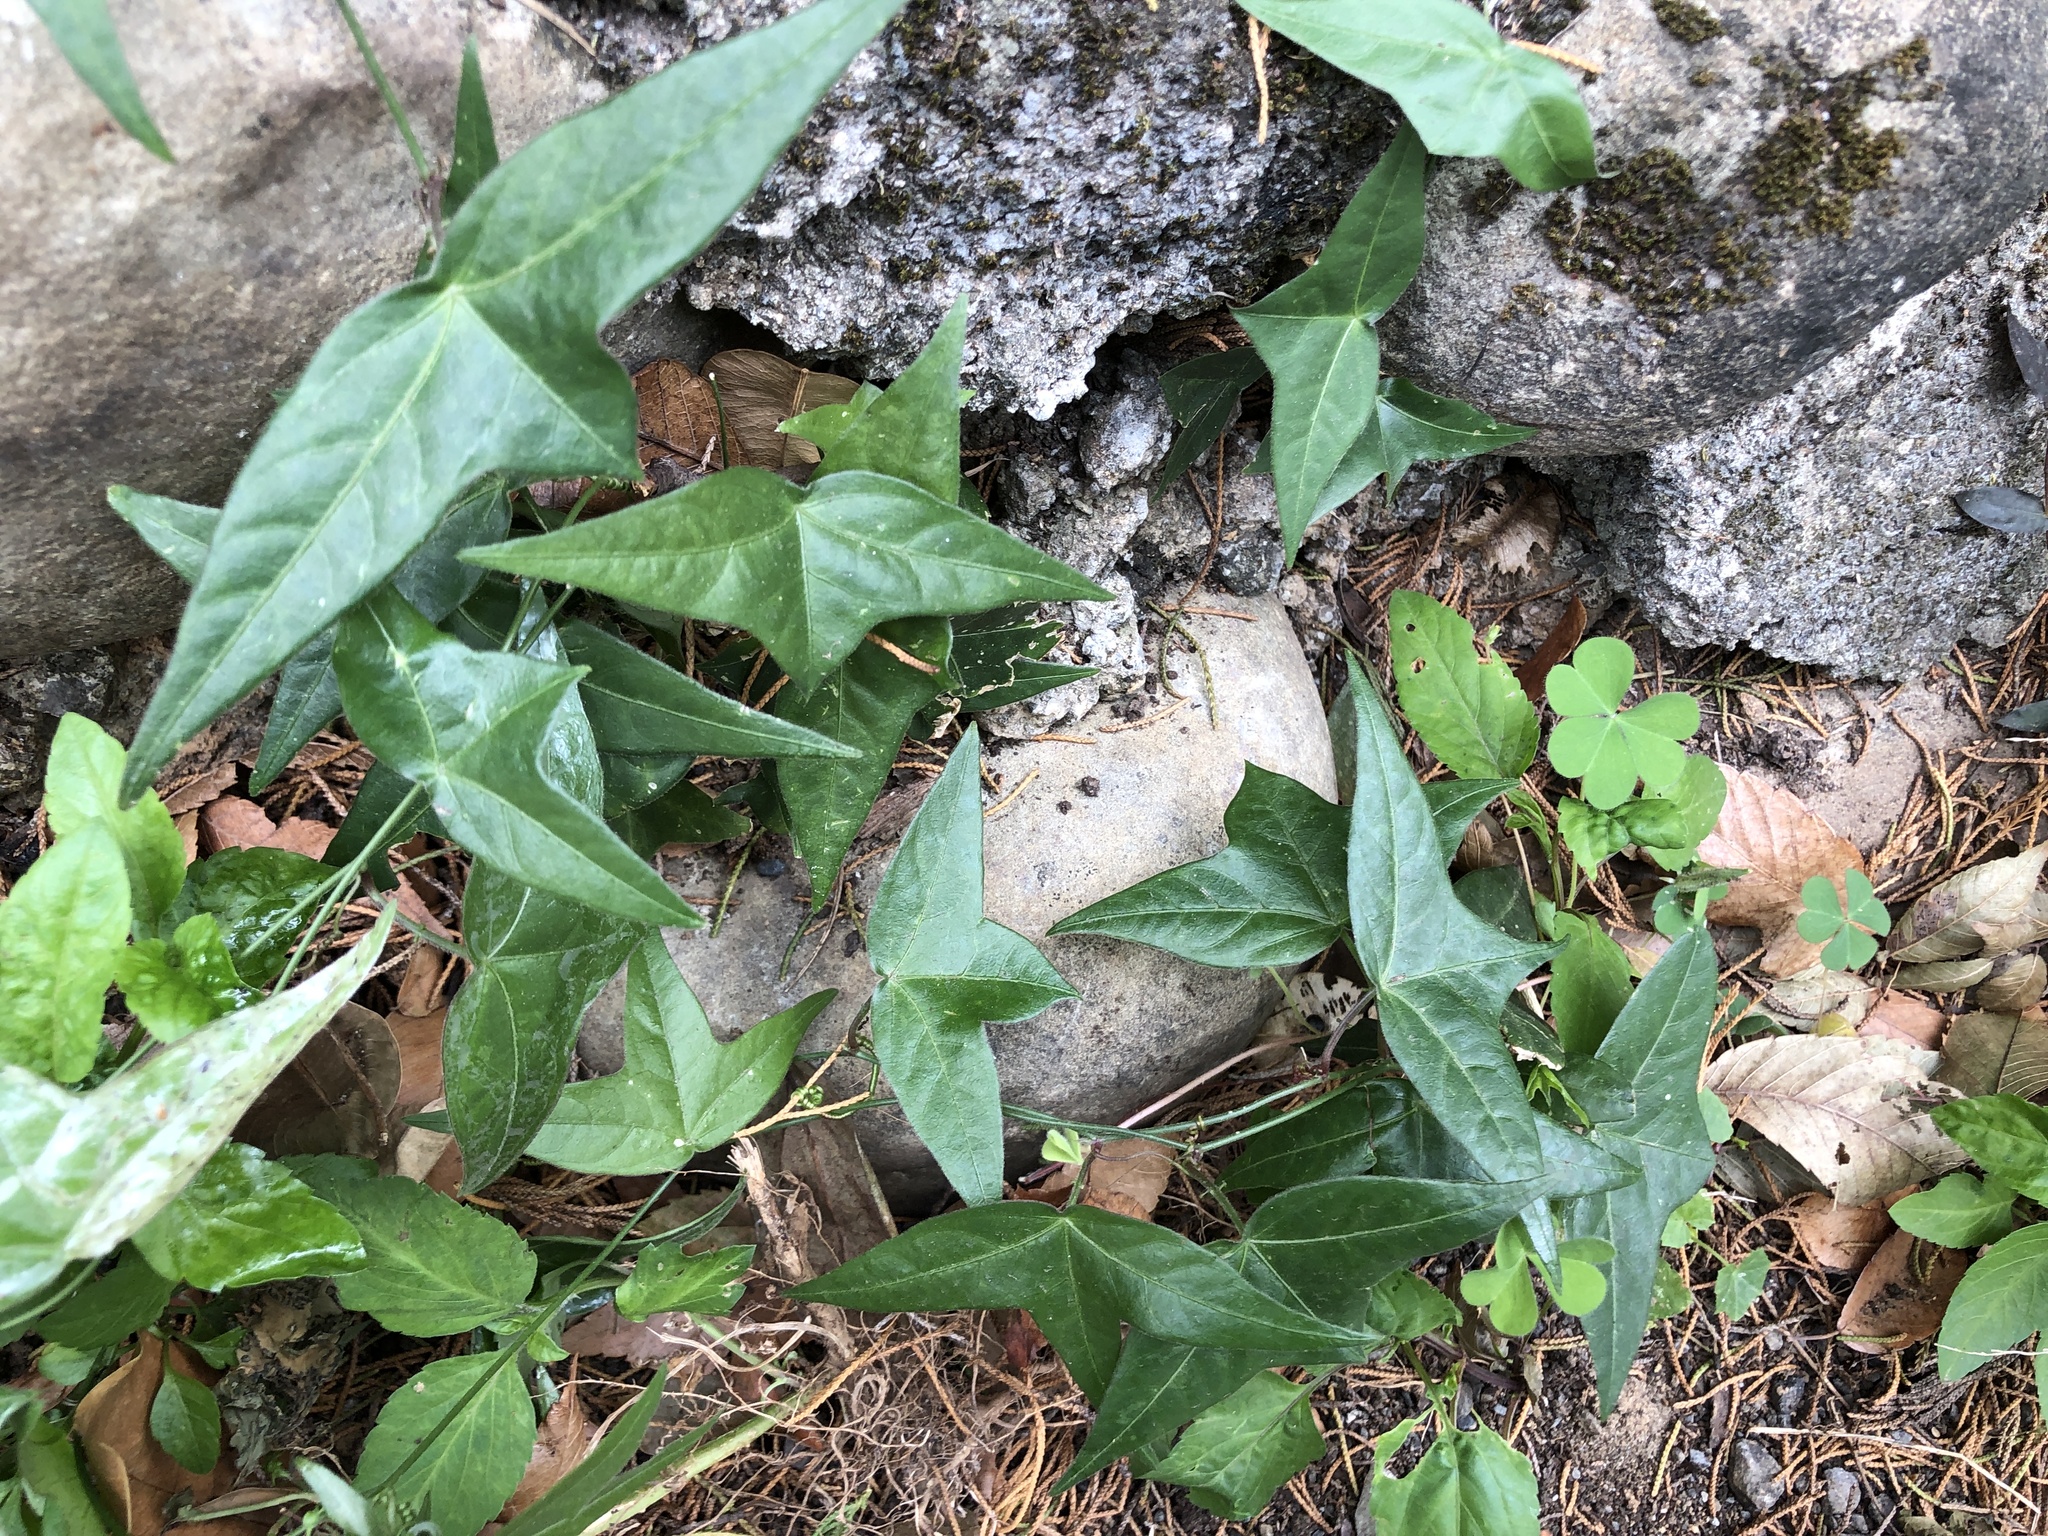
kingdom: Plantae
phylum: Tracheophyta
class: Magnoliopsida
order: Malpighiales
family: Passifloraceae
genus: Passiflora
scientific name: Passiflora suberosa
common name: Wild passionfruit
